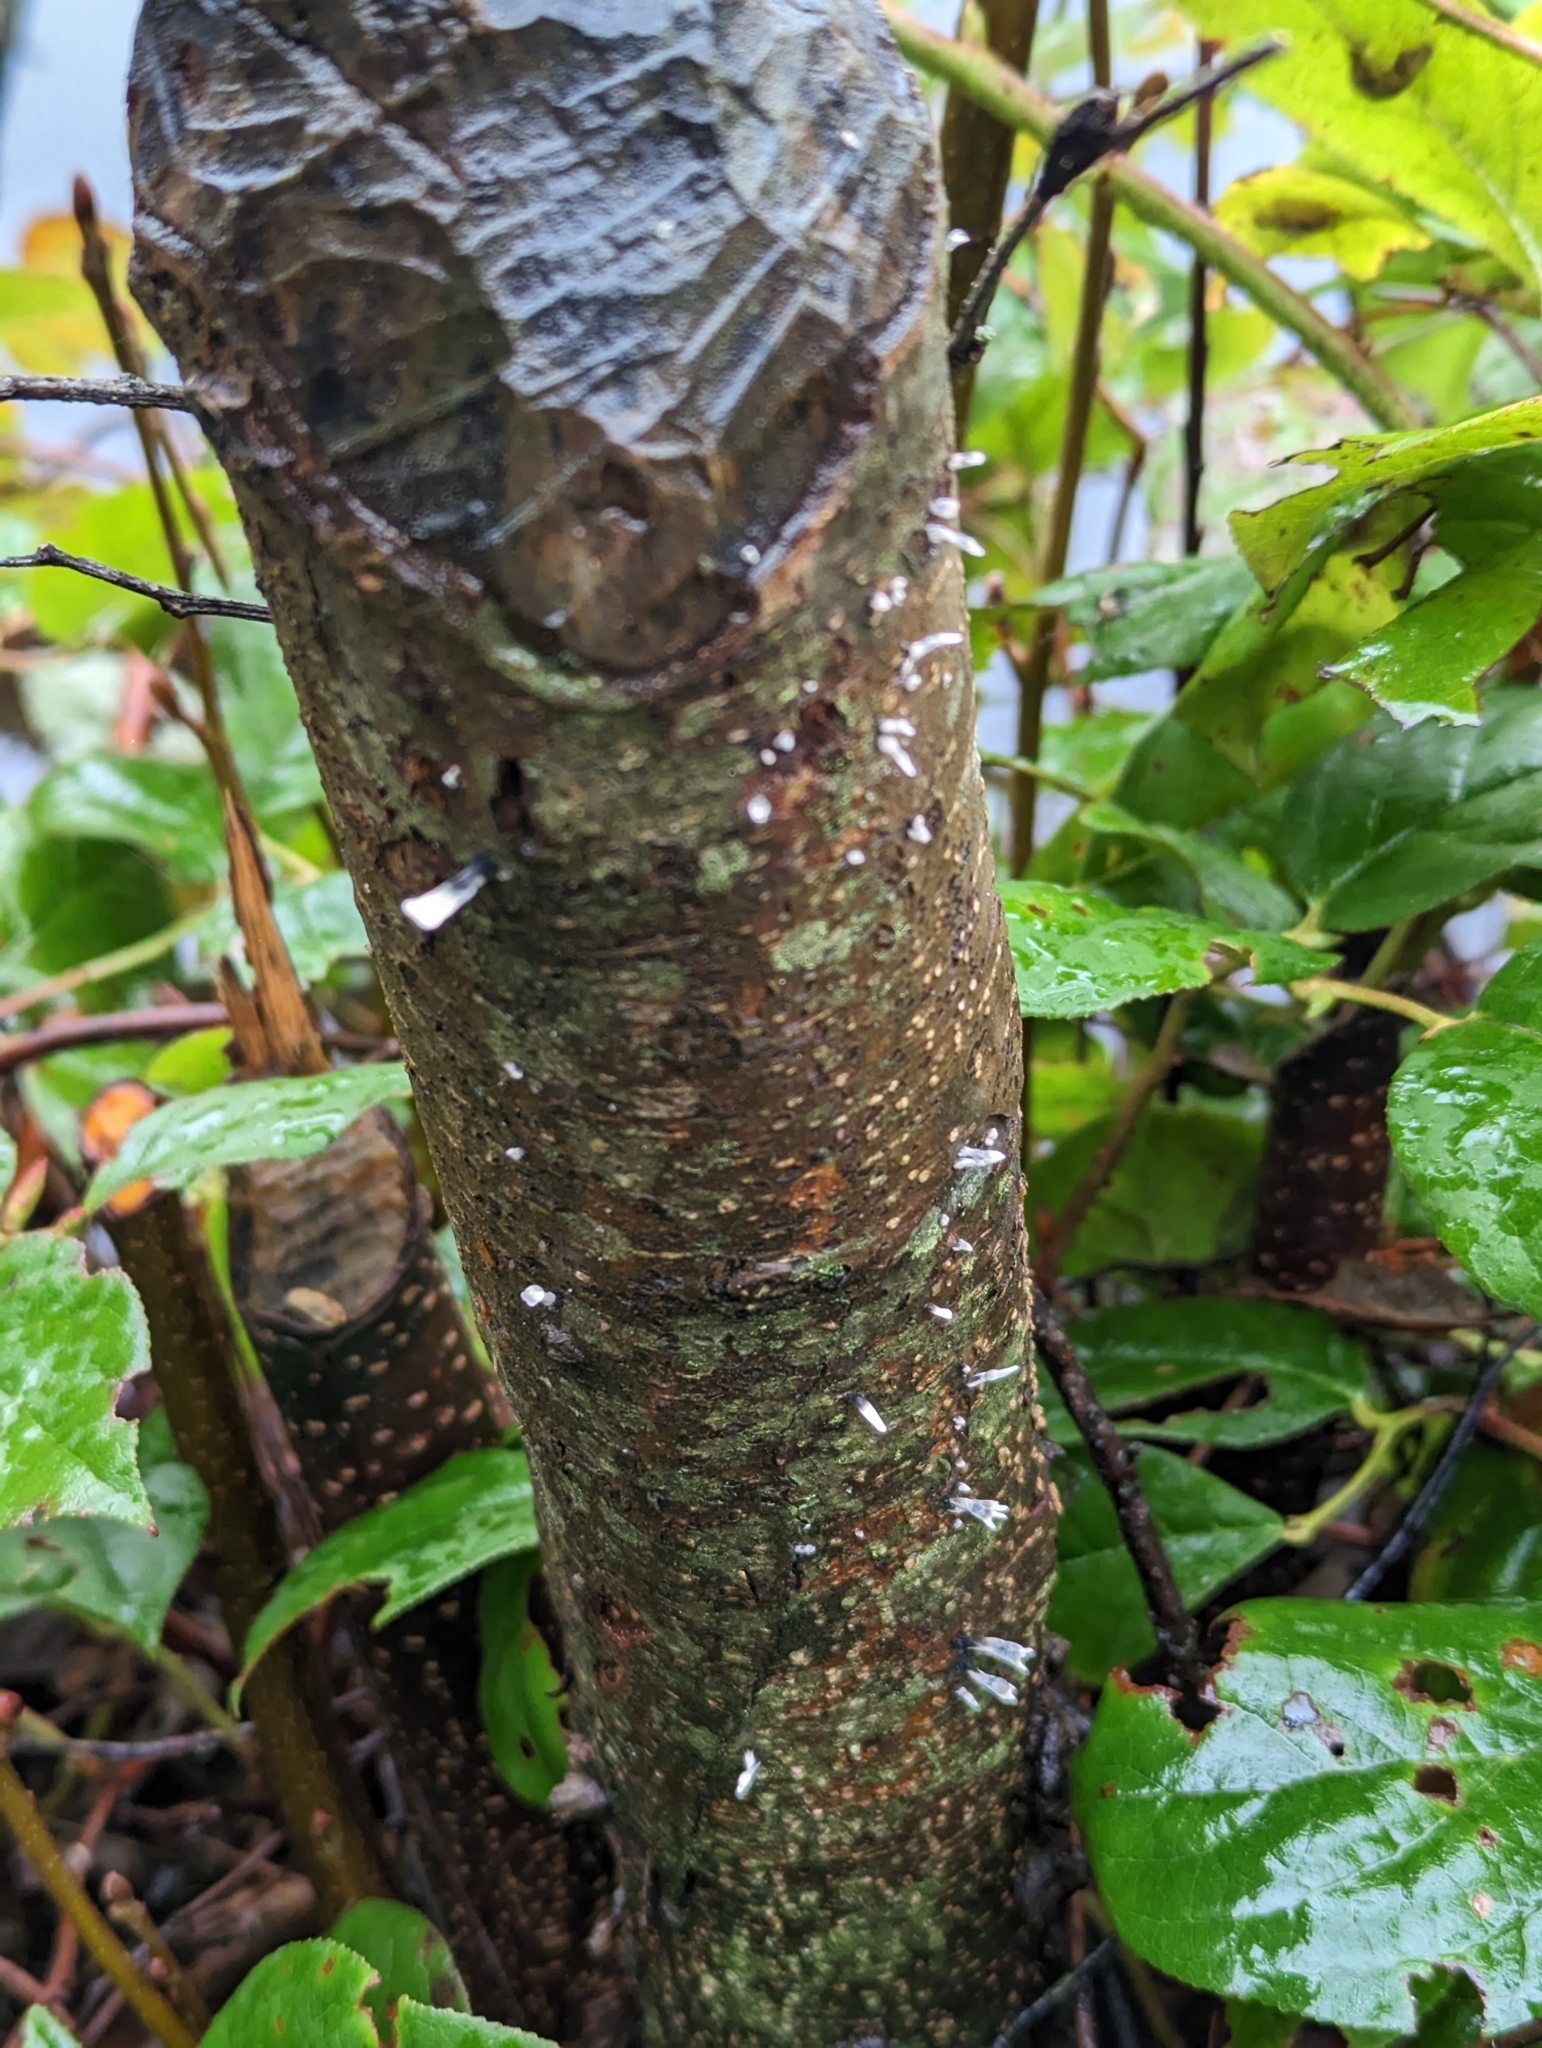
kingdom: Fungi
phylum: Ascomycota
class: Sordariomycetes
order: Xylariales
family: Xylariaceae
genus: Xylaria
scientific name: Xylaria hypoxylon
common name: Candle-snuff fungus
